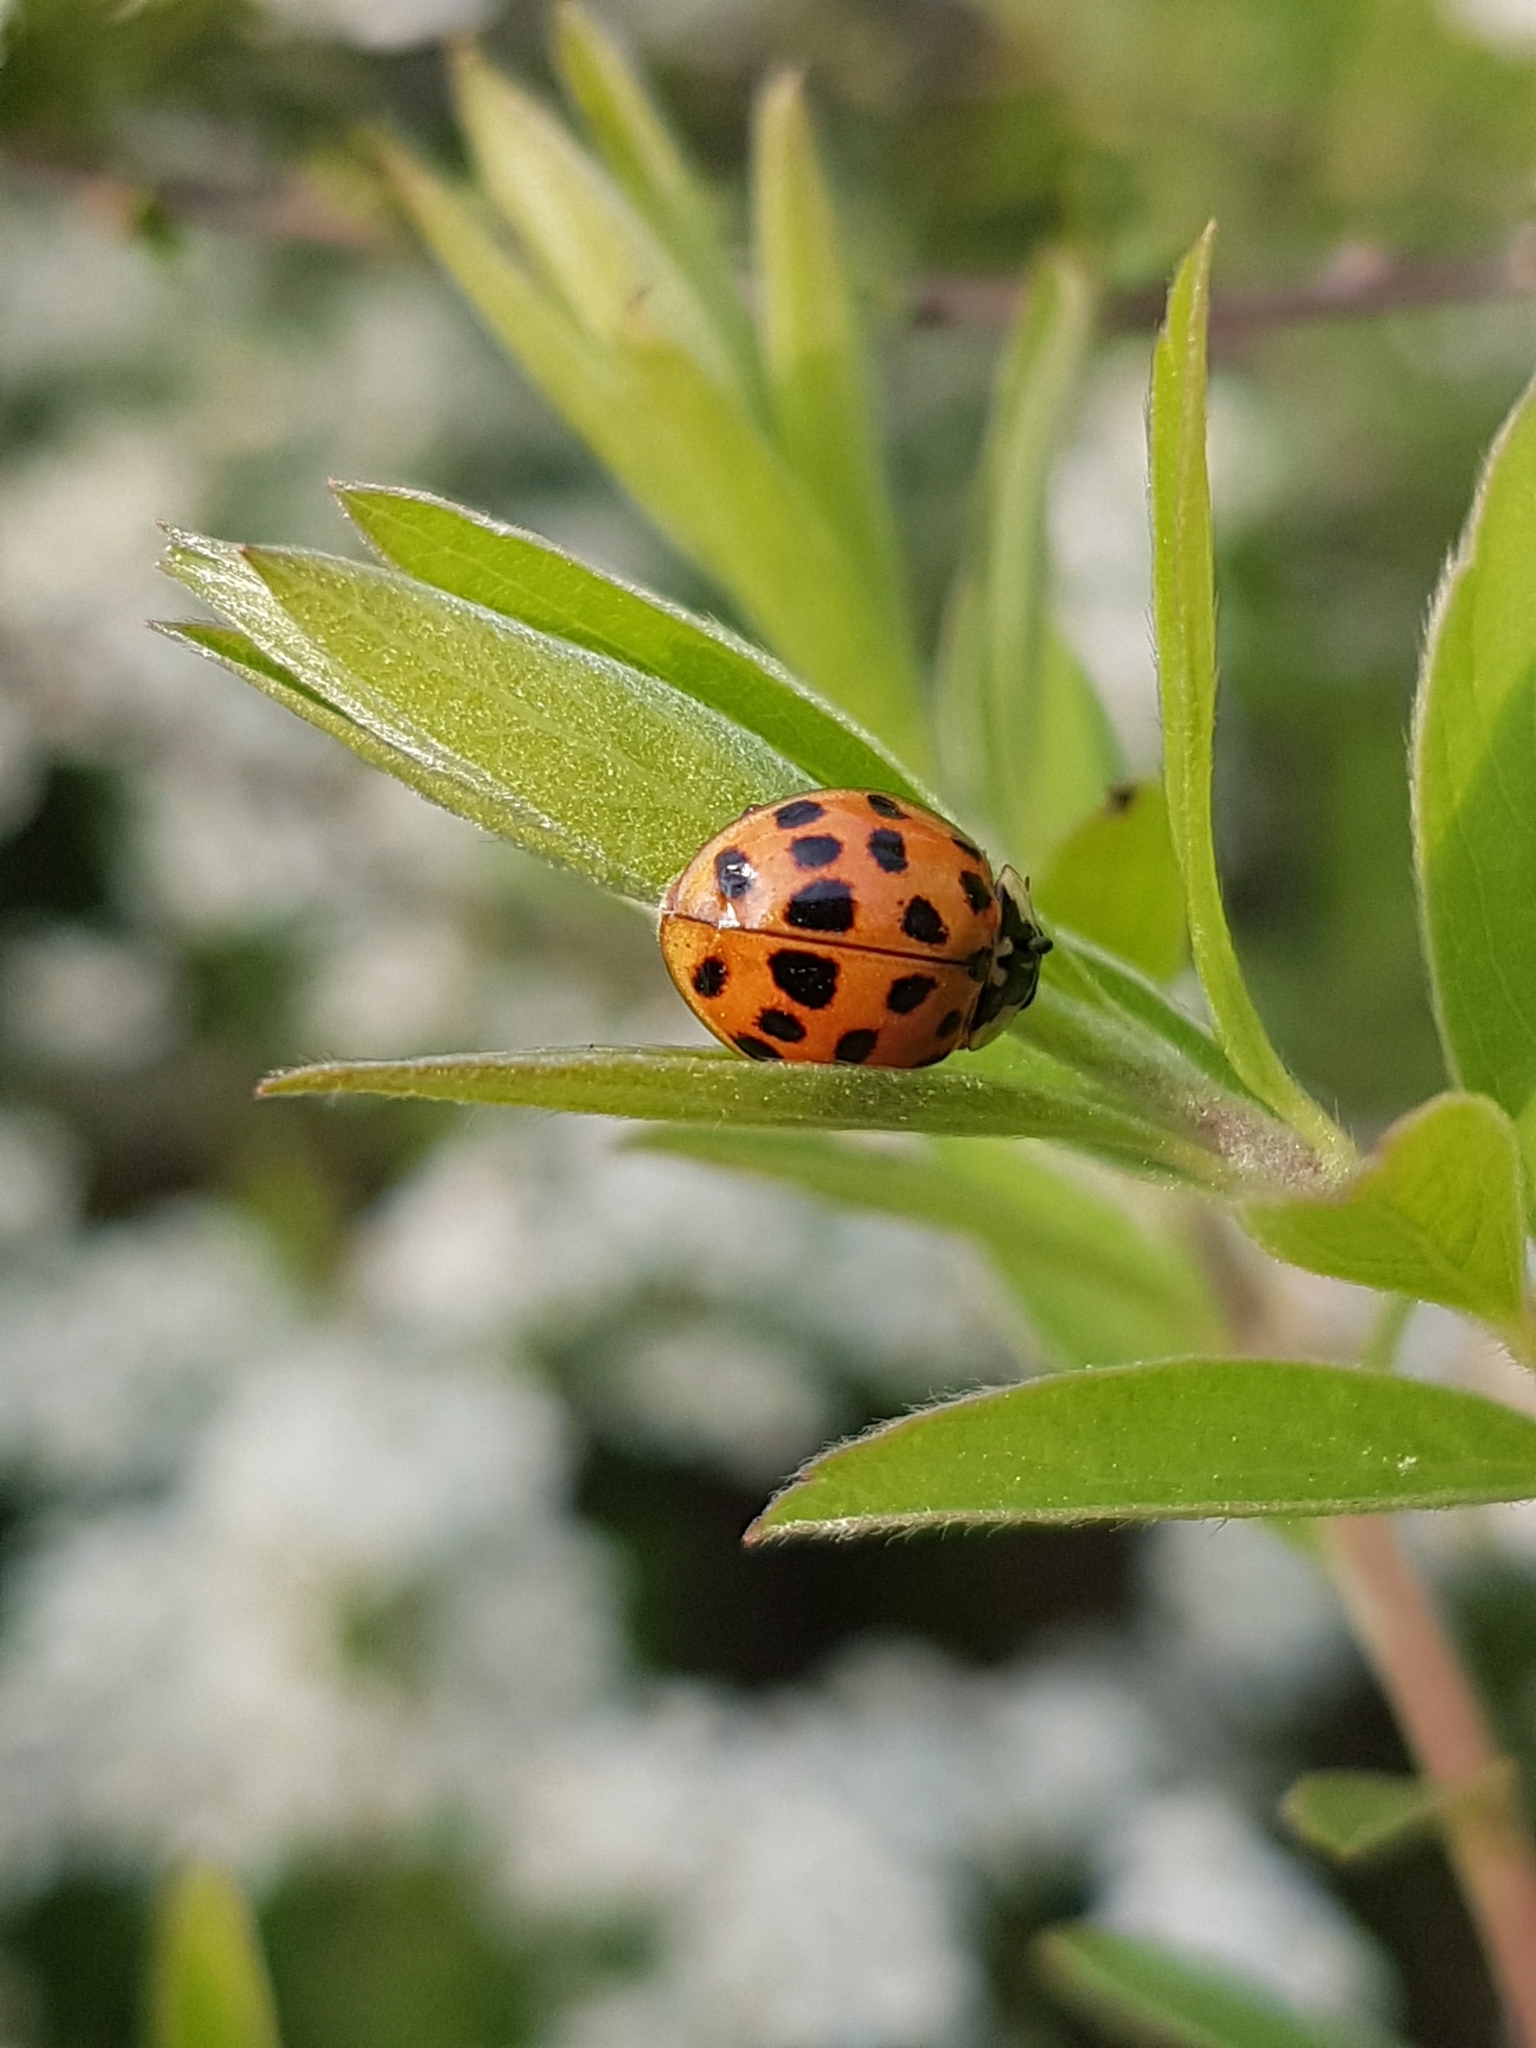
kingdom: Animalia
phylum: Arthropoda
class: Insecta
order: Coleoptera
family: Coccinellidae
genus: Harmonia
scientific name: Harmonia axyridis
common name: Harlequin ladybird
